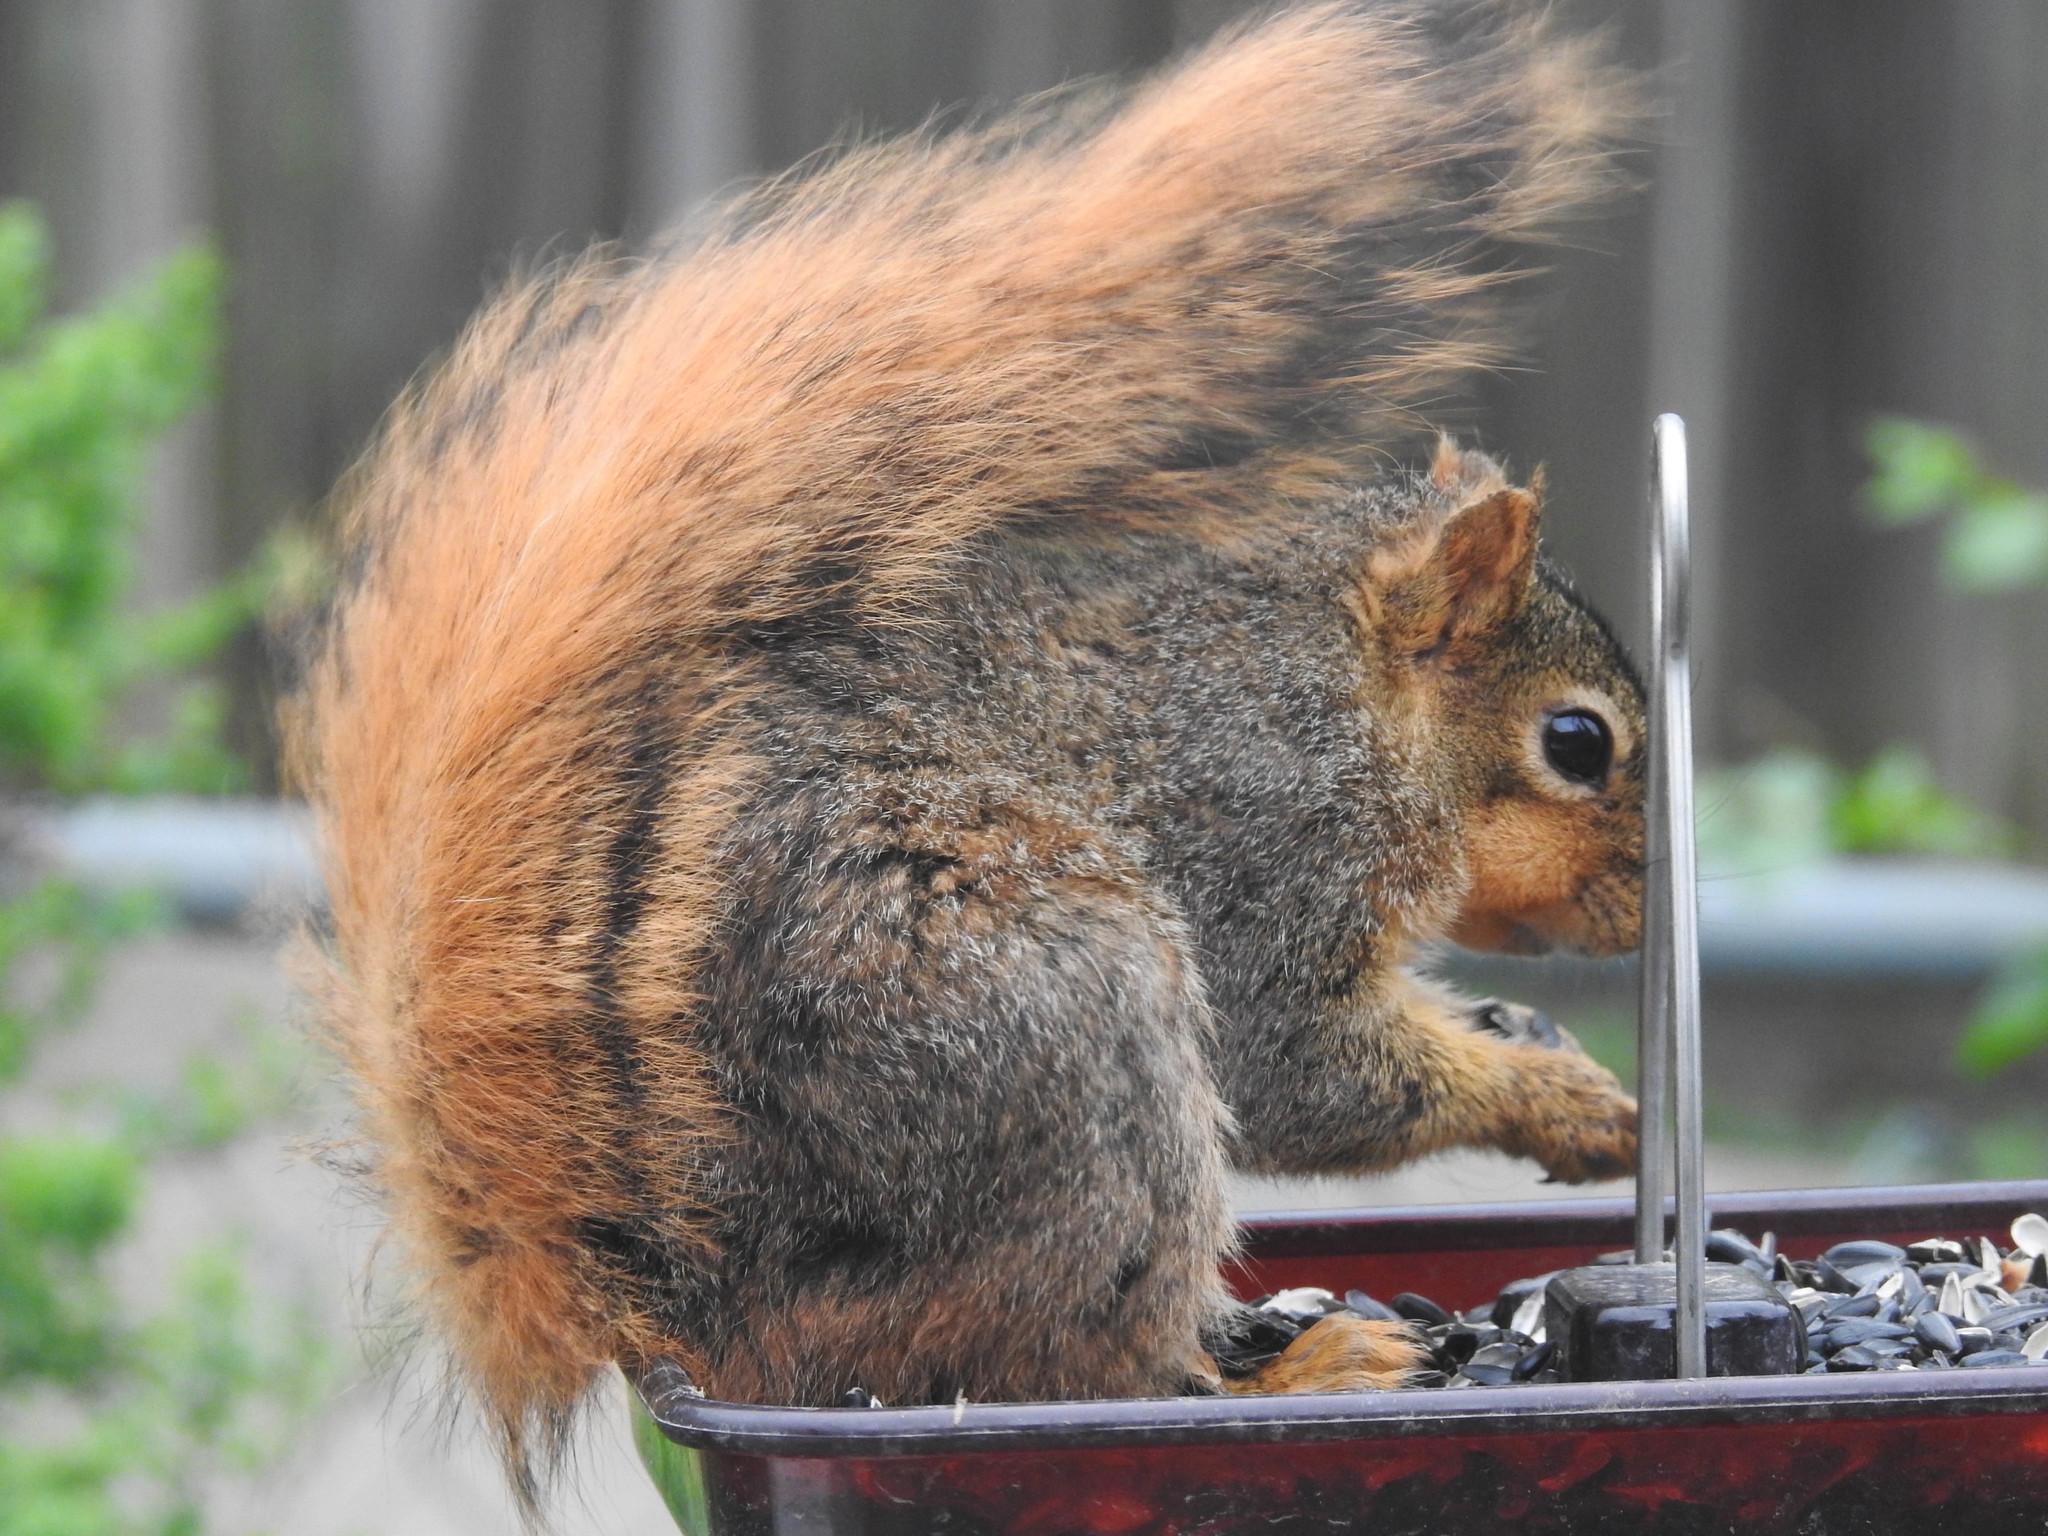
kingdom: Animalia
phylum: Chordata
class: Mammalia
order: Rodentia
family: Sciuridae
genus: Sciurus
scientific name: Sciurus niger
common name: Fox squirrel
